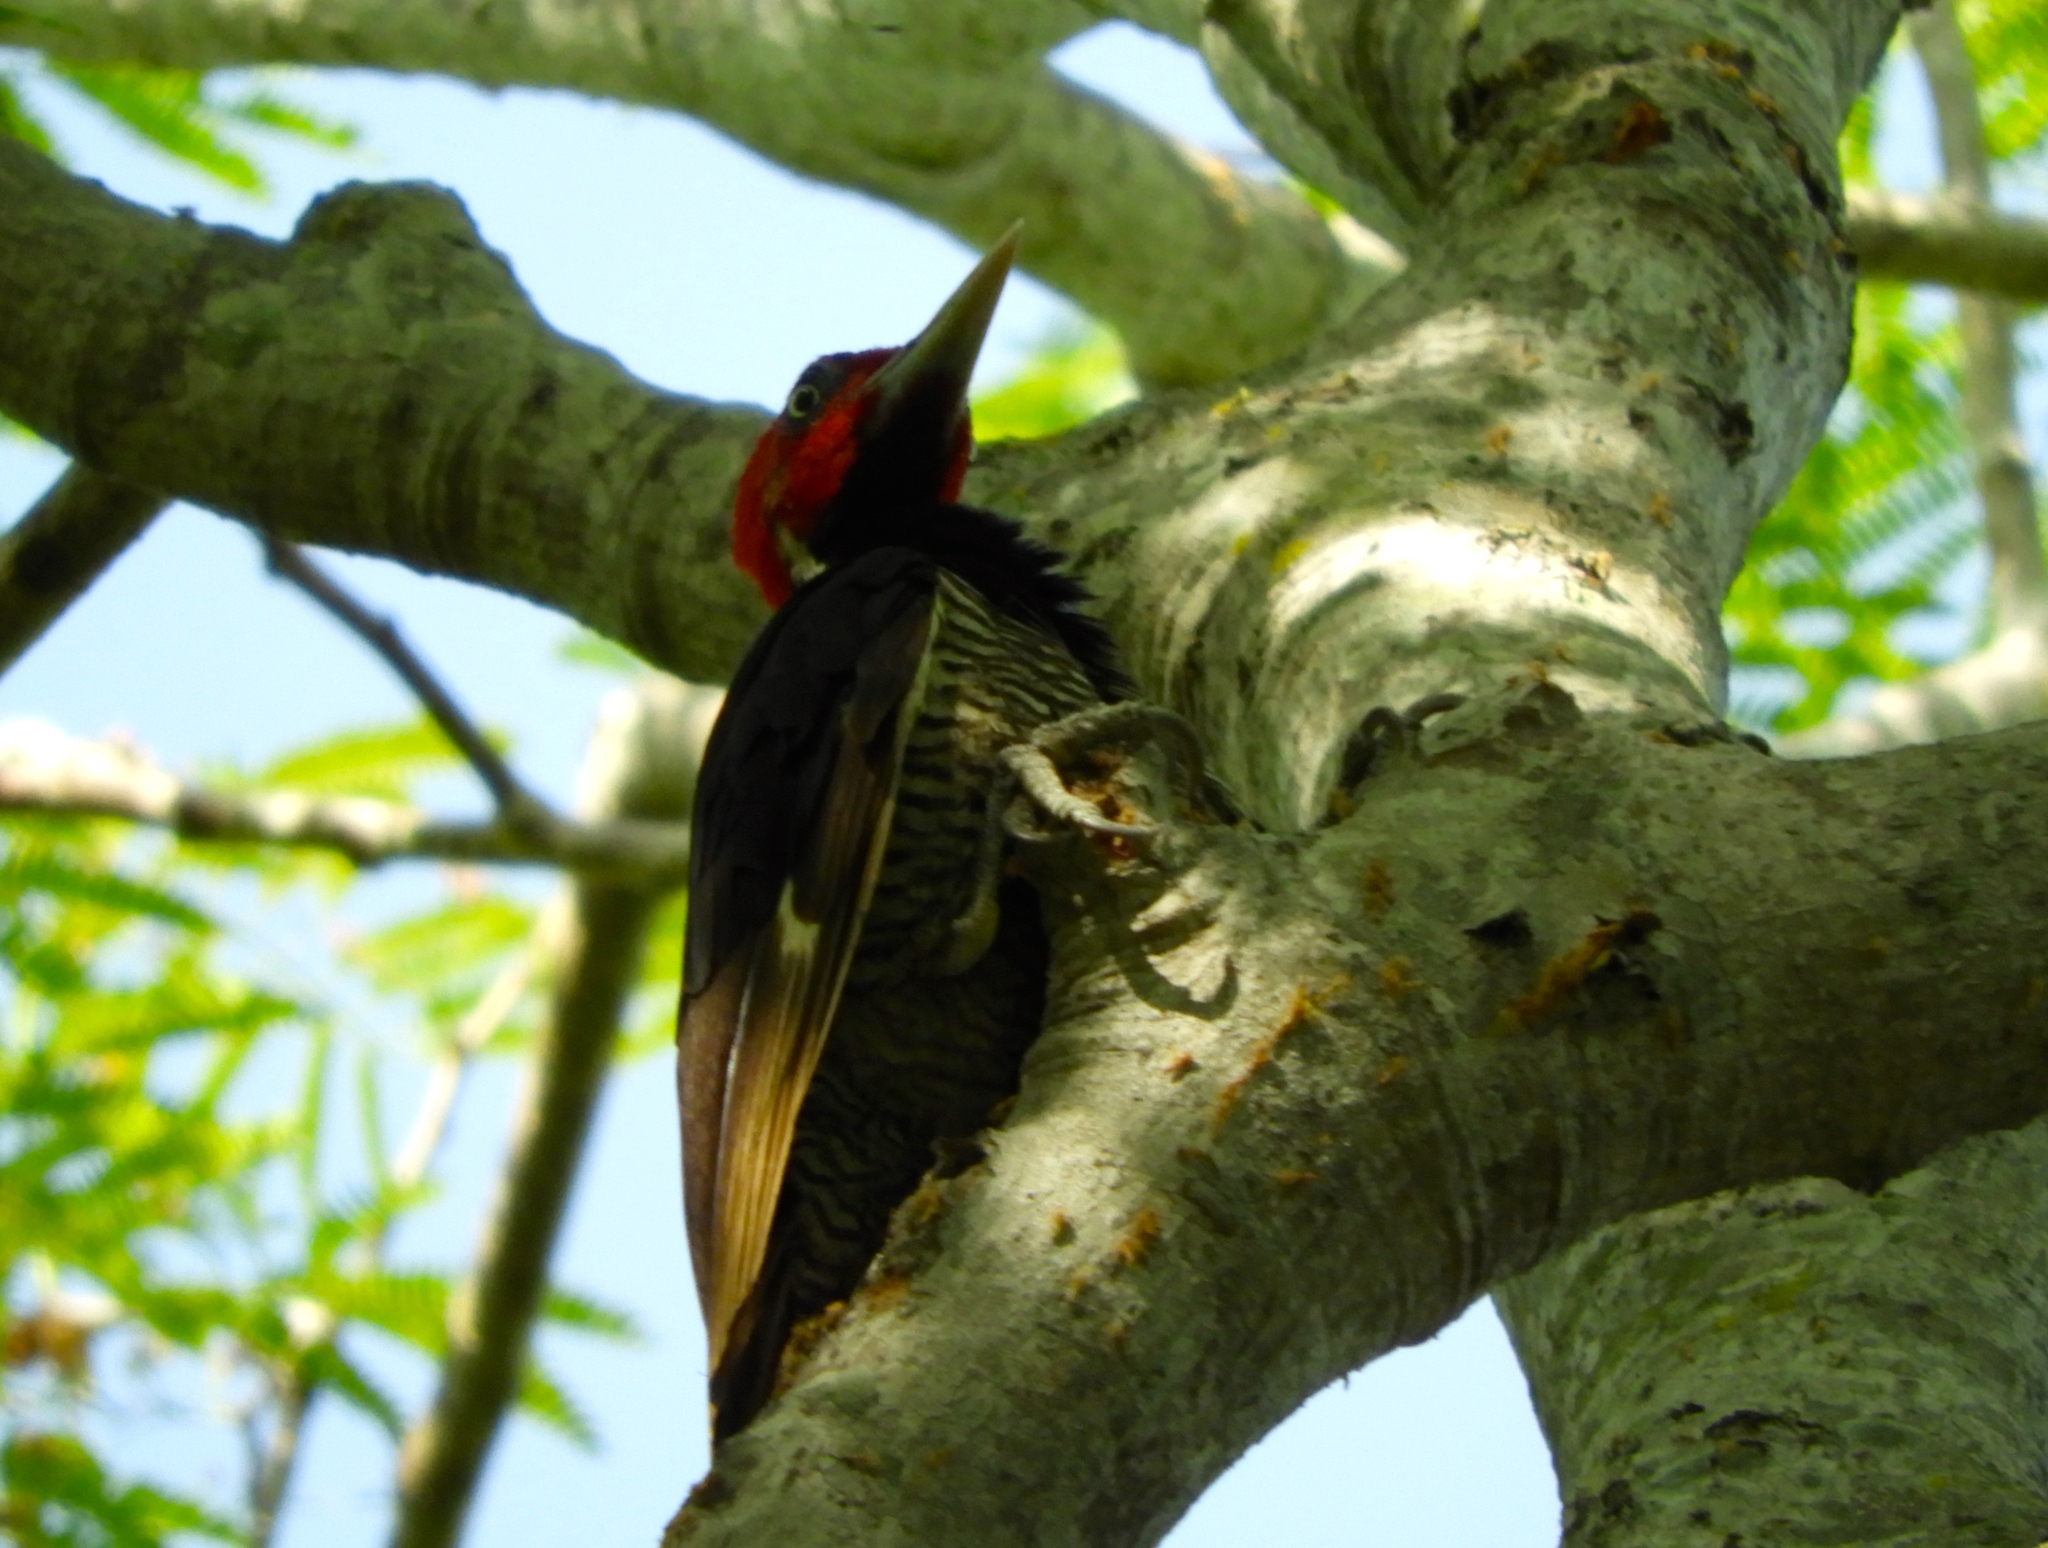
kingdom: Animalia
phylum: Chordata
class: Aves
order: Piciformes
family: Picidae
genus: Campephilus
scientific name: Campephilus guatemalensis
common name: Pale-billed woodpecker
